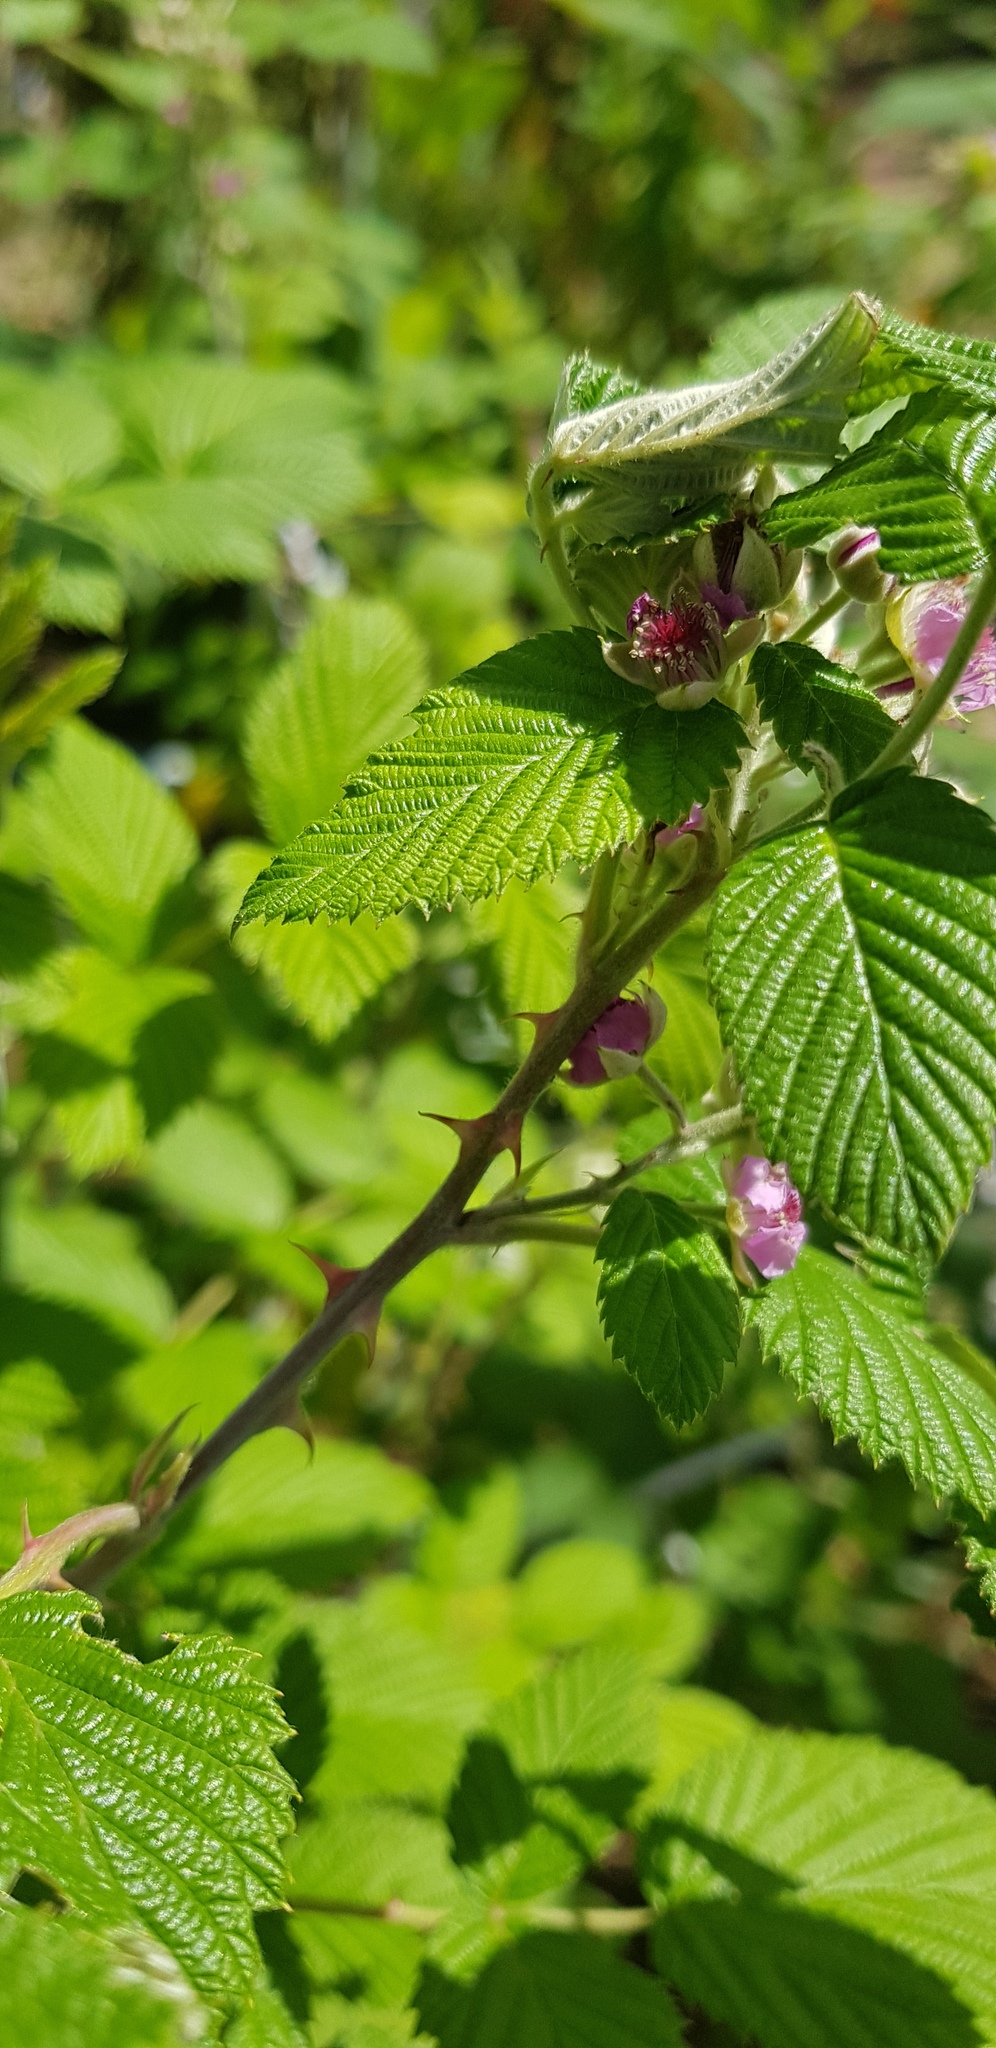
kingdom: Plantae
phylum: Tracheophyta
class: Magnoliopsida
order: Rosales
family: Rosaceae
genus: Rubus
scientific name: Rubus niveus
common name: Snowpeaks raspberry
